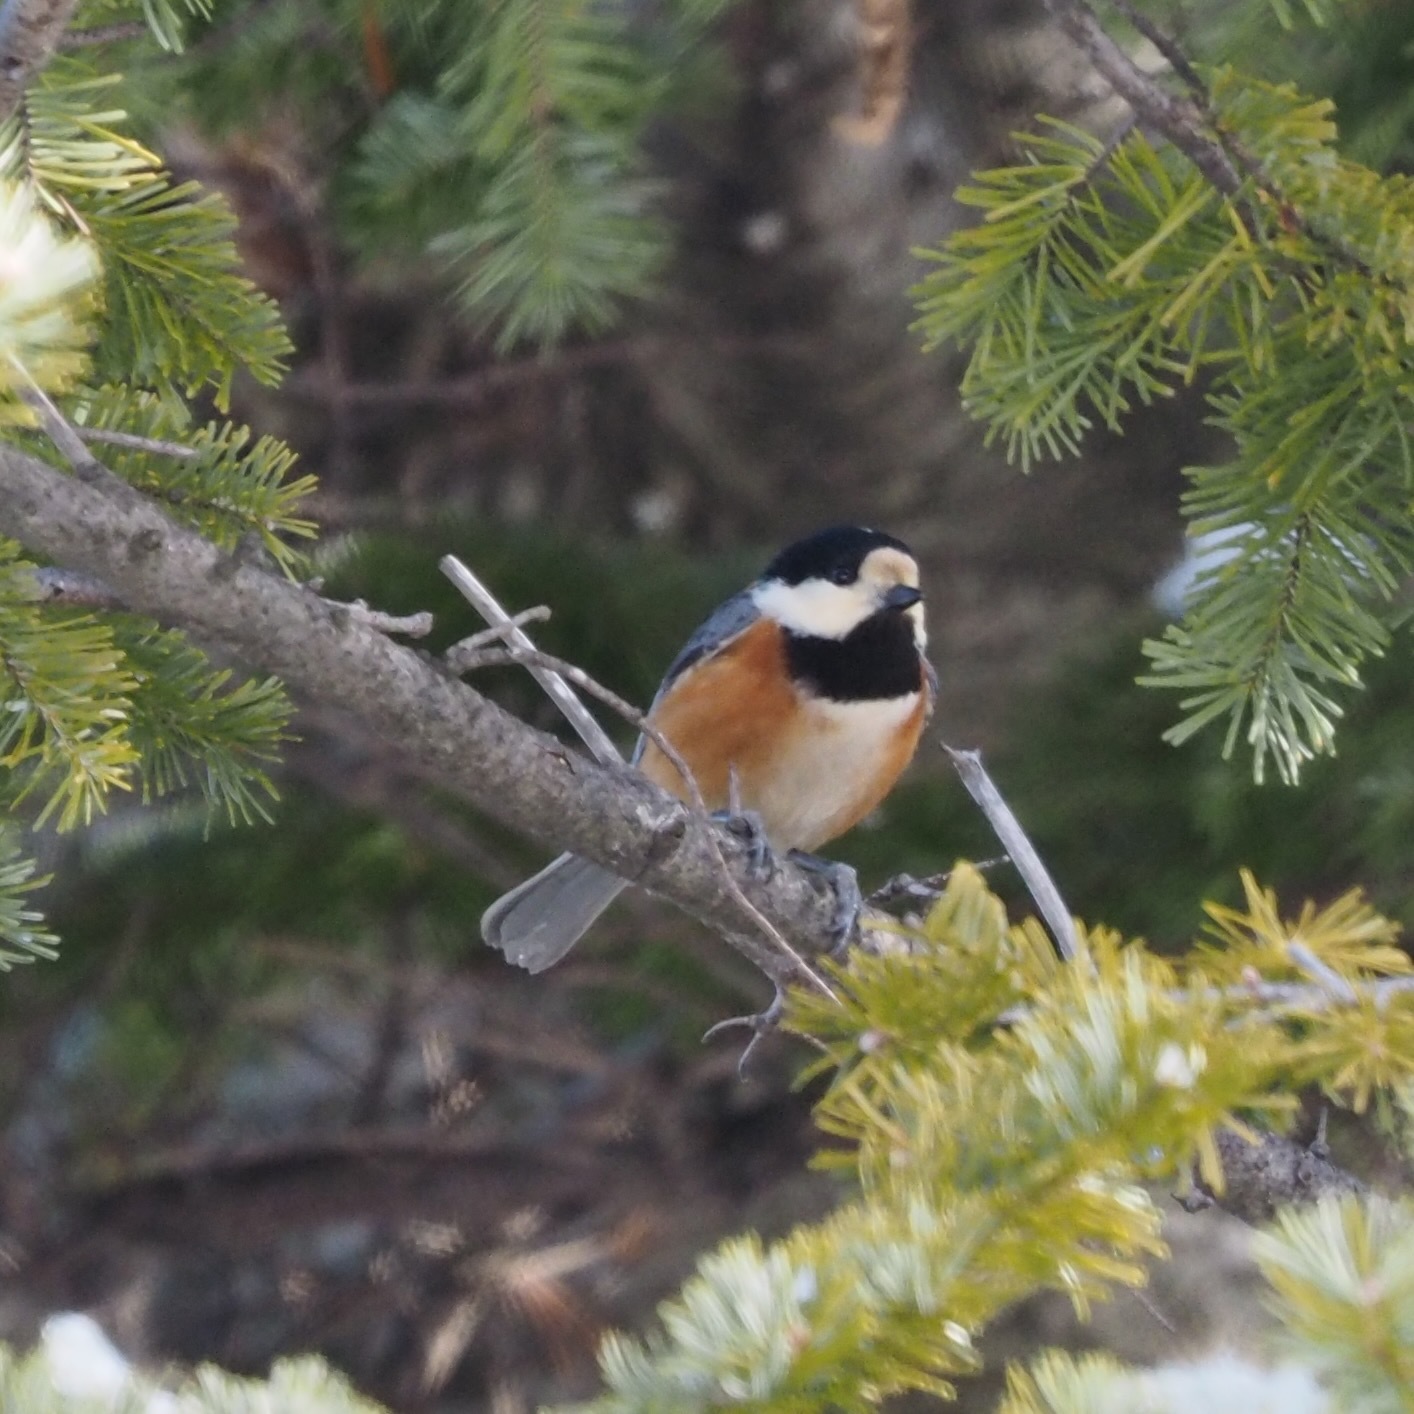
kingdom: Animalia
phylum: Chordata
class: Aves
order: Passeriformes
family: Paridae
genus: Poecile
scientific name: Poecile varius
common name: Varied tit
